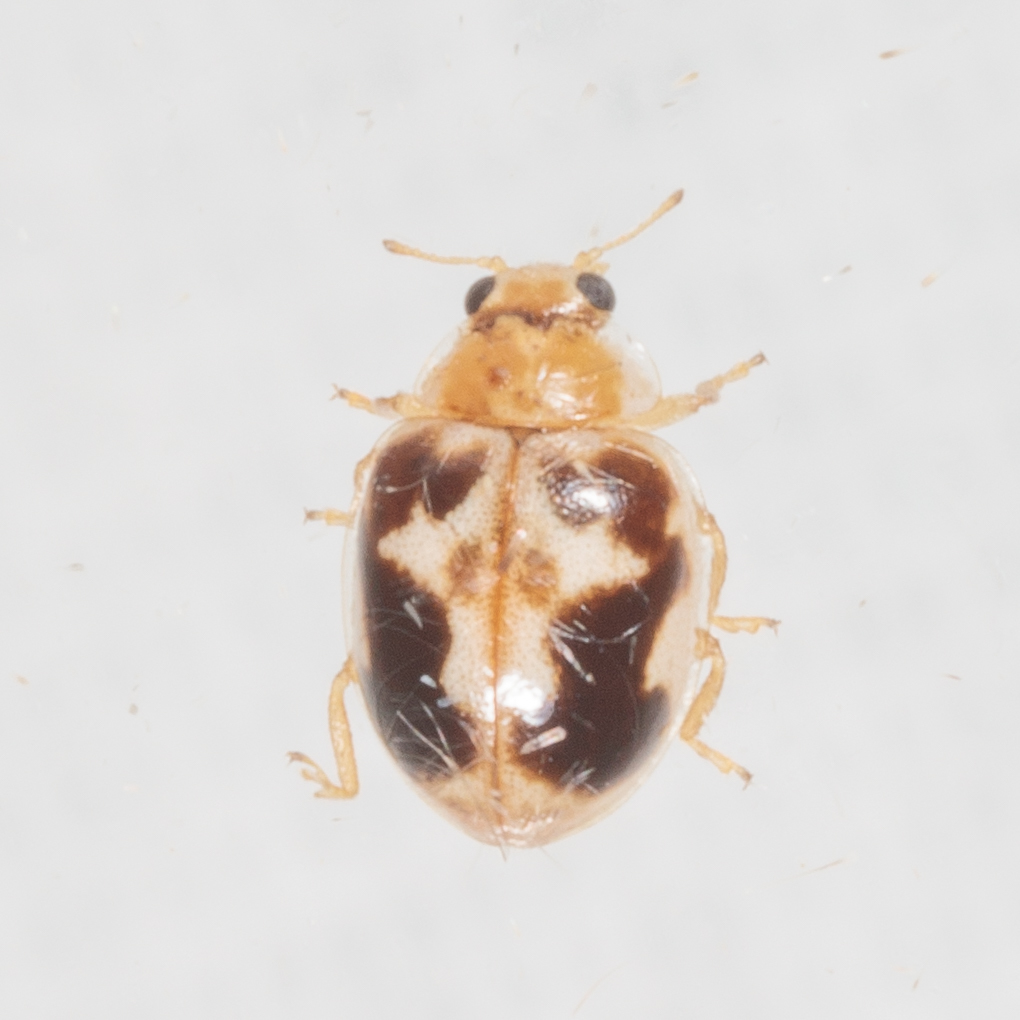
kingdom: Animalia
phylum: Arthropoda
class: Insecta
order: Coleoptera
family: Coccinellidae
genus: Psyllobora
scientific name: Psyllobora renifer
